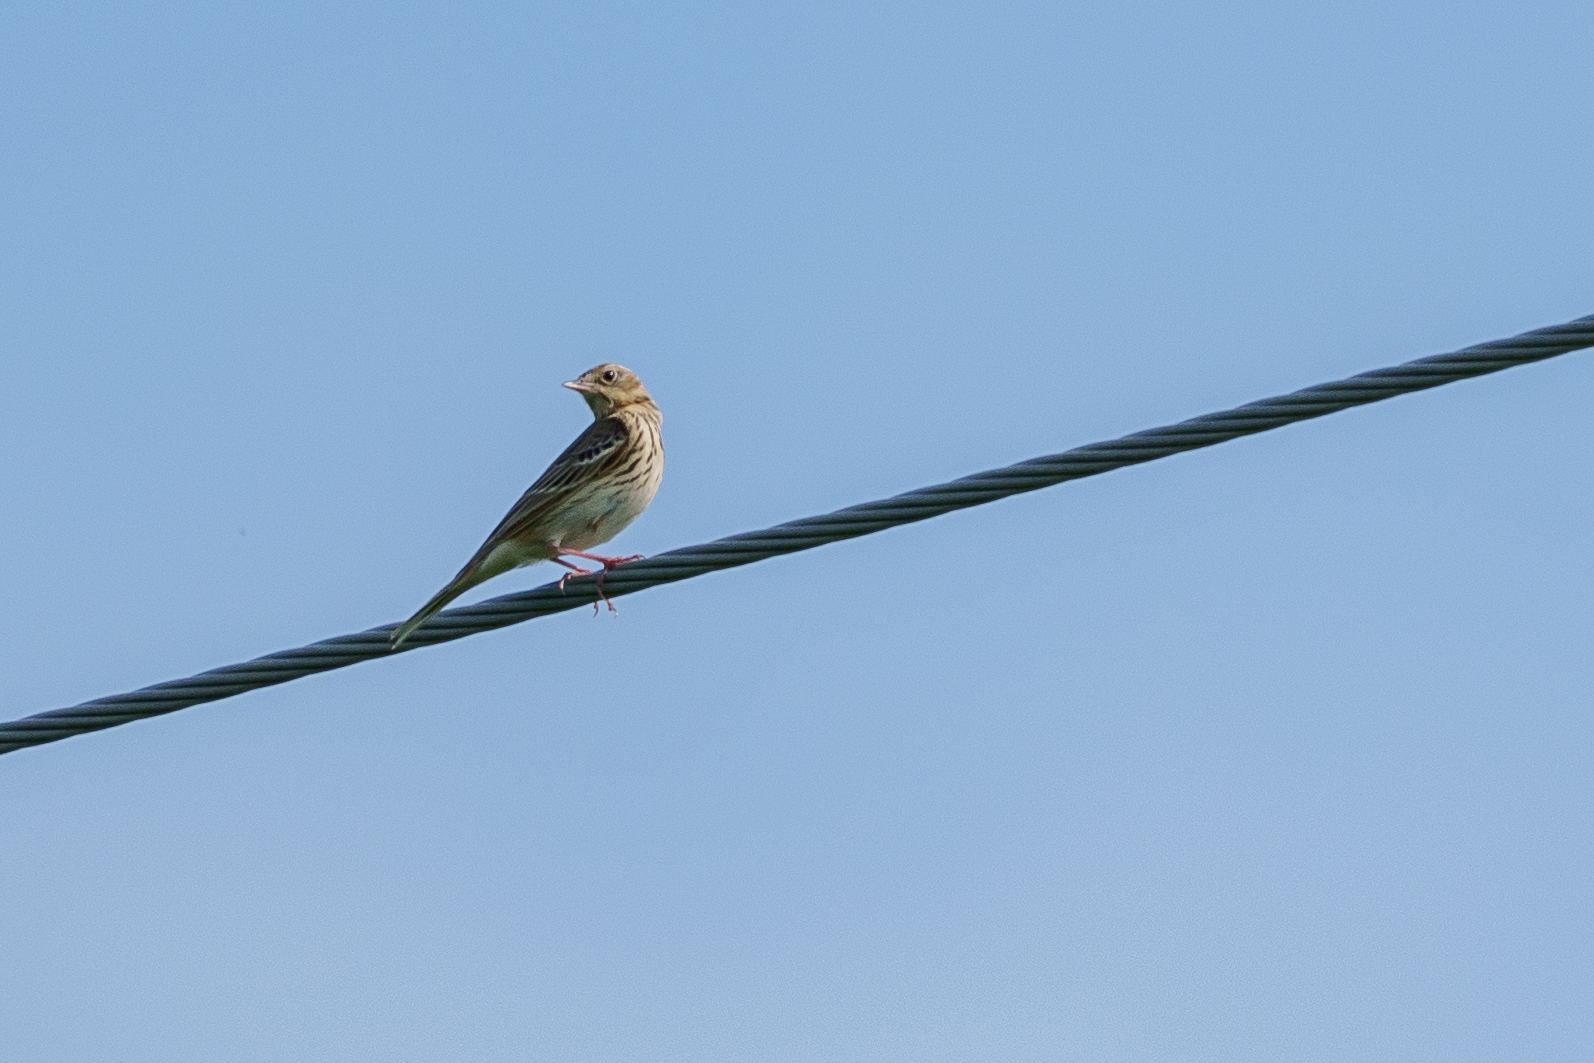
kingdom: Animalia
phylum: Chordata
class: Aves
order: Passeriformes
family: Motacillidae
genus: Anthus
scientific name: Anthus trivialis
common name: Tree pipit
